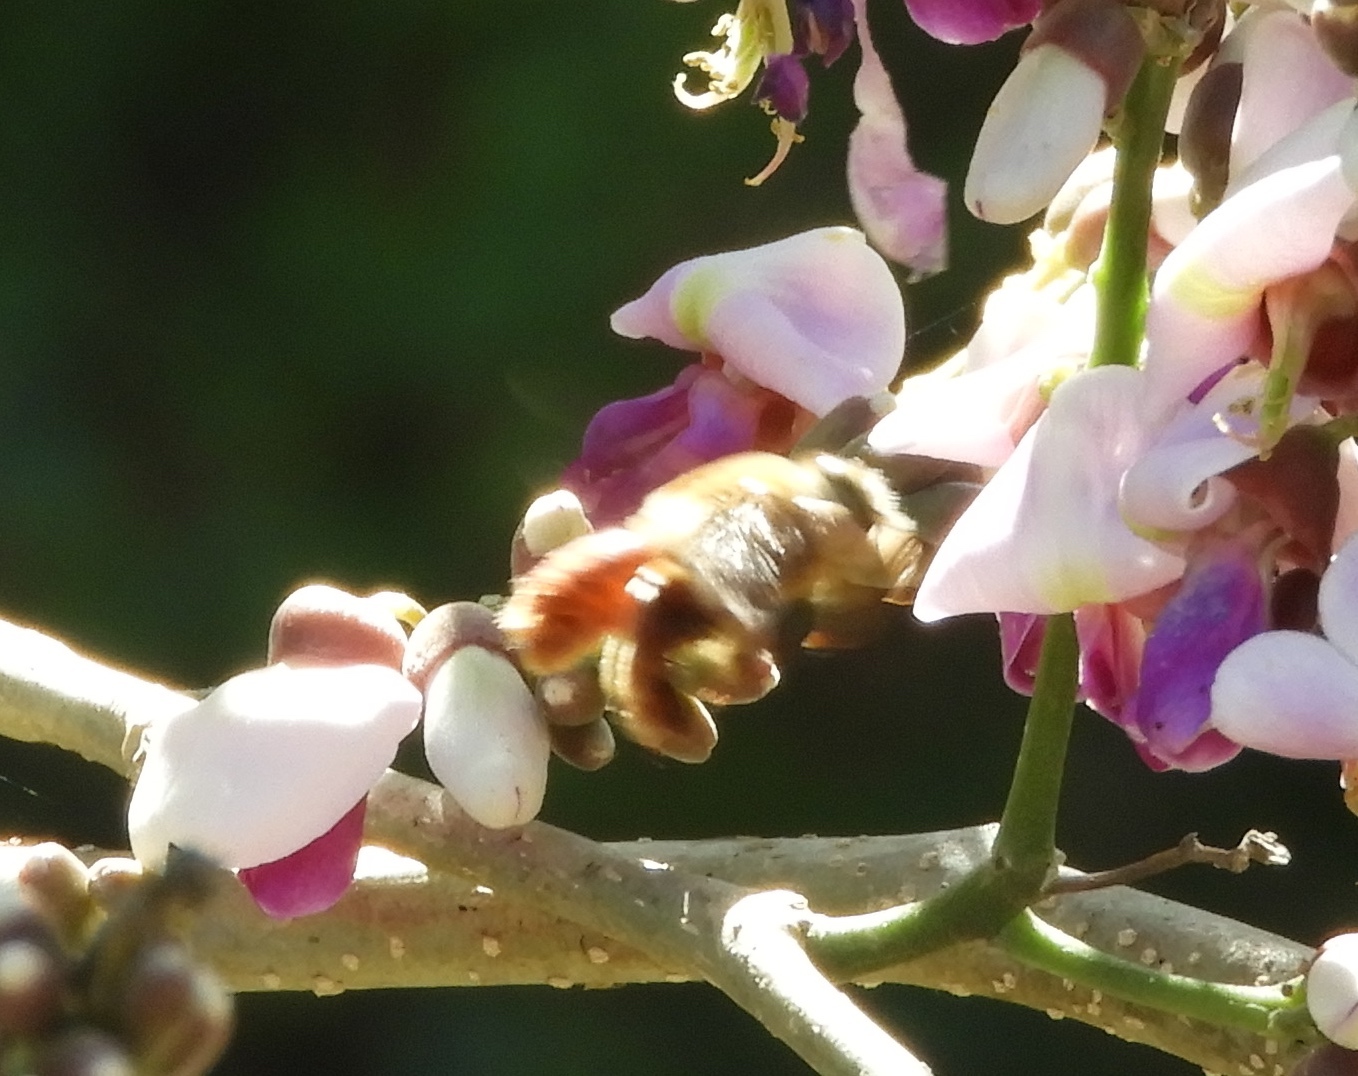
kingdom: Animalia
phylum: Arthropoda
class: Insecta
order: Hymenoptera
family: Apidae
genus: Centris
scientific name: Centris eurypatana
